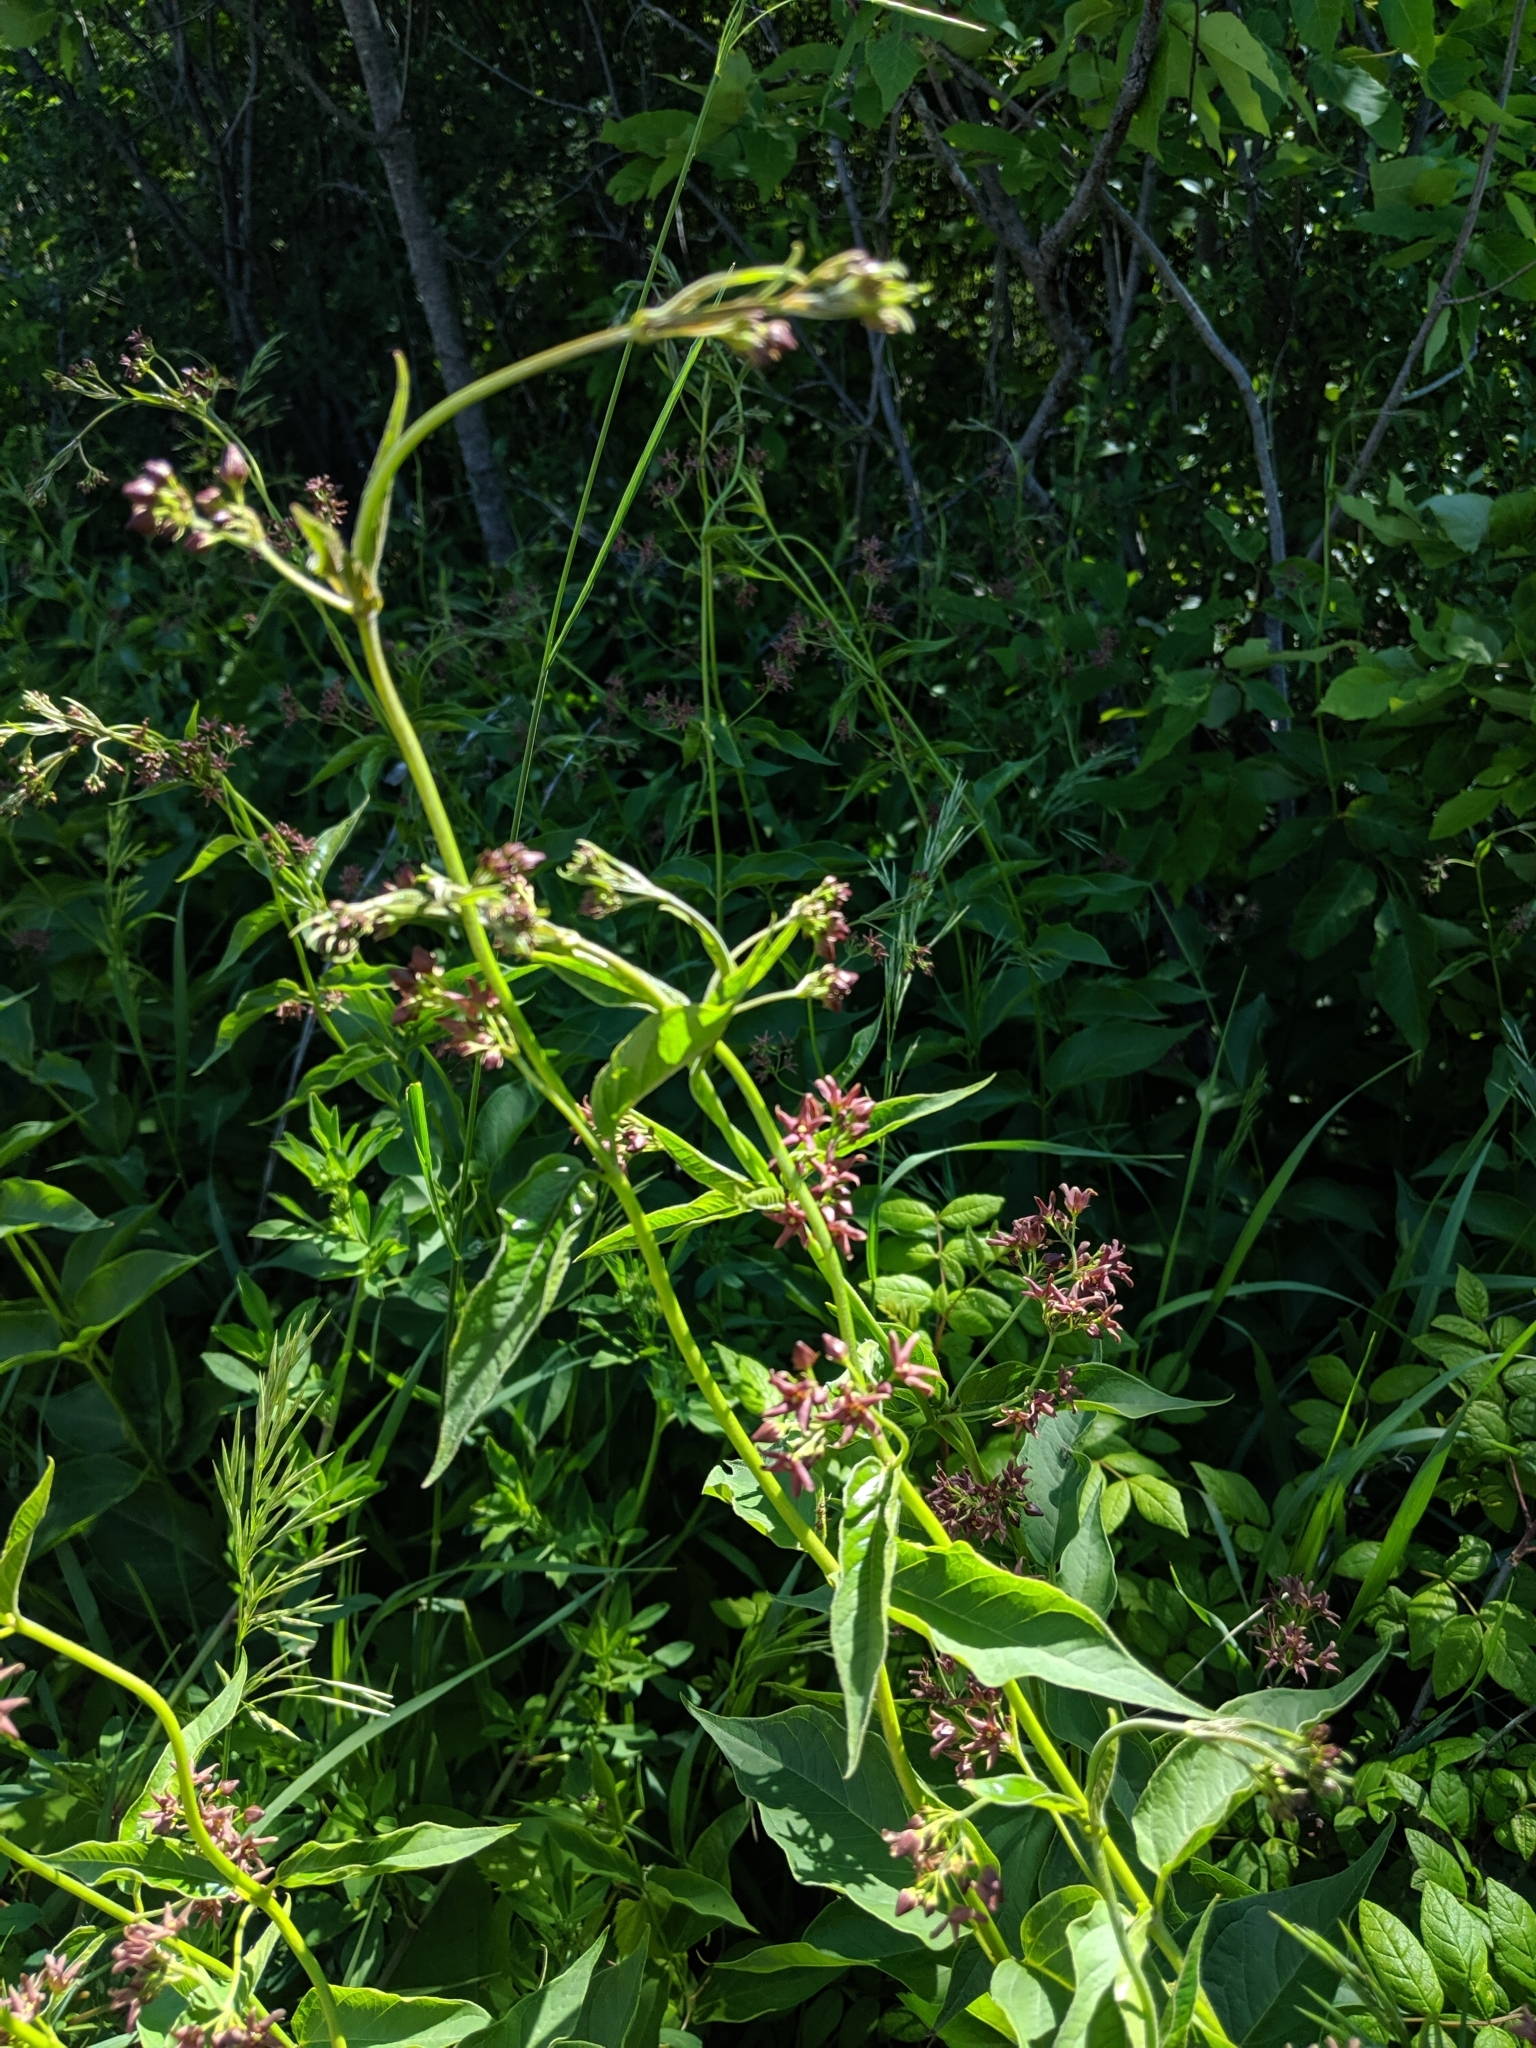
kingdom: Plantae
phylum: Tracheophyta
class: Magnoliopsida
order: Gentianales
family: Apocynaceae
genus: Vincetoxicum
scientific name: Vincetoxicum rossicum
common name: Dog-strangling vine
